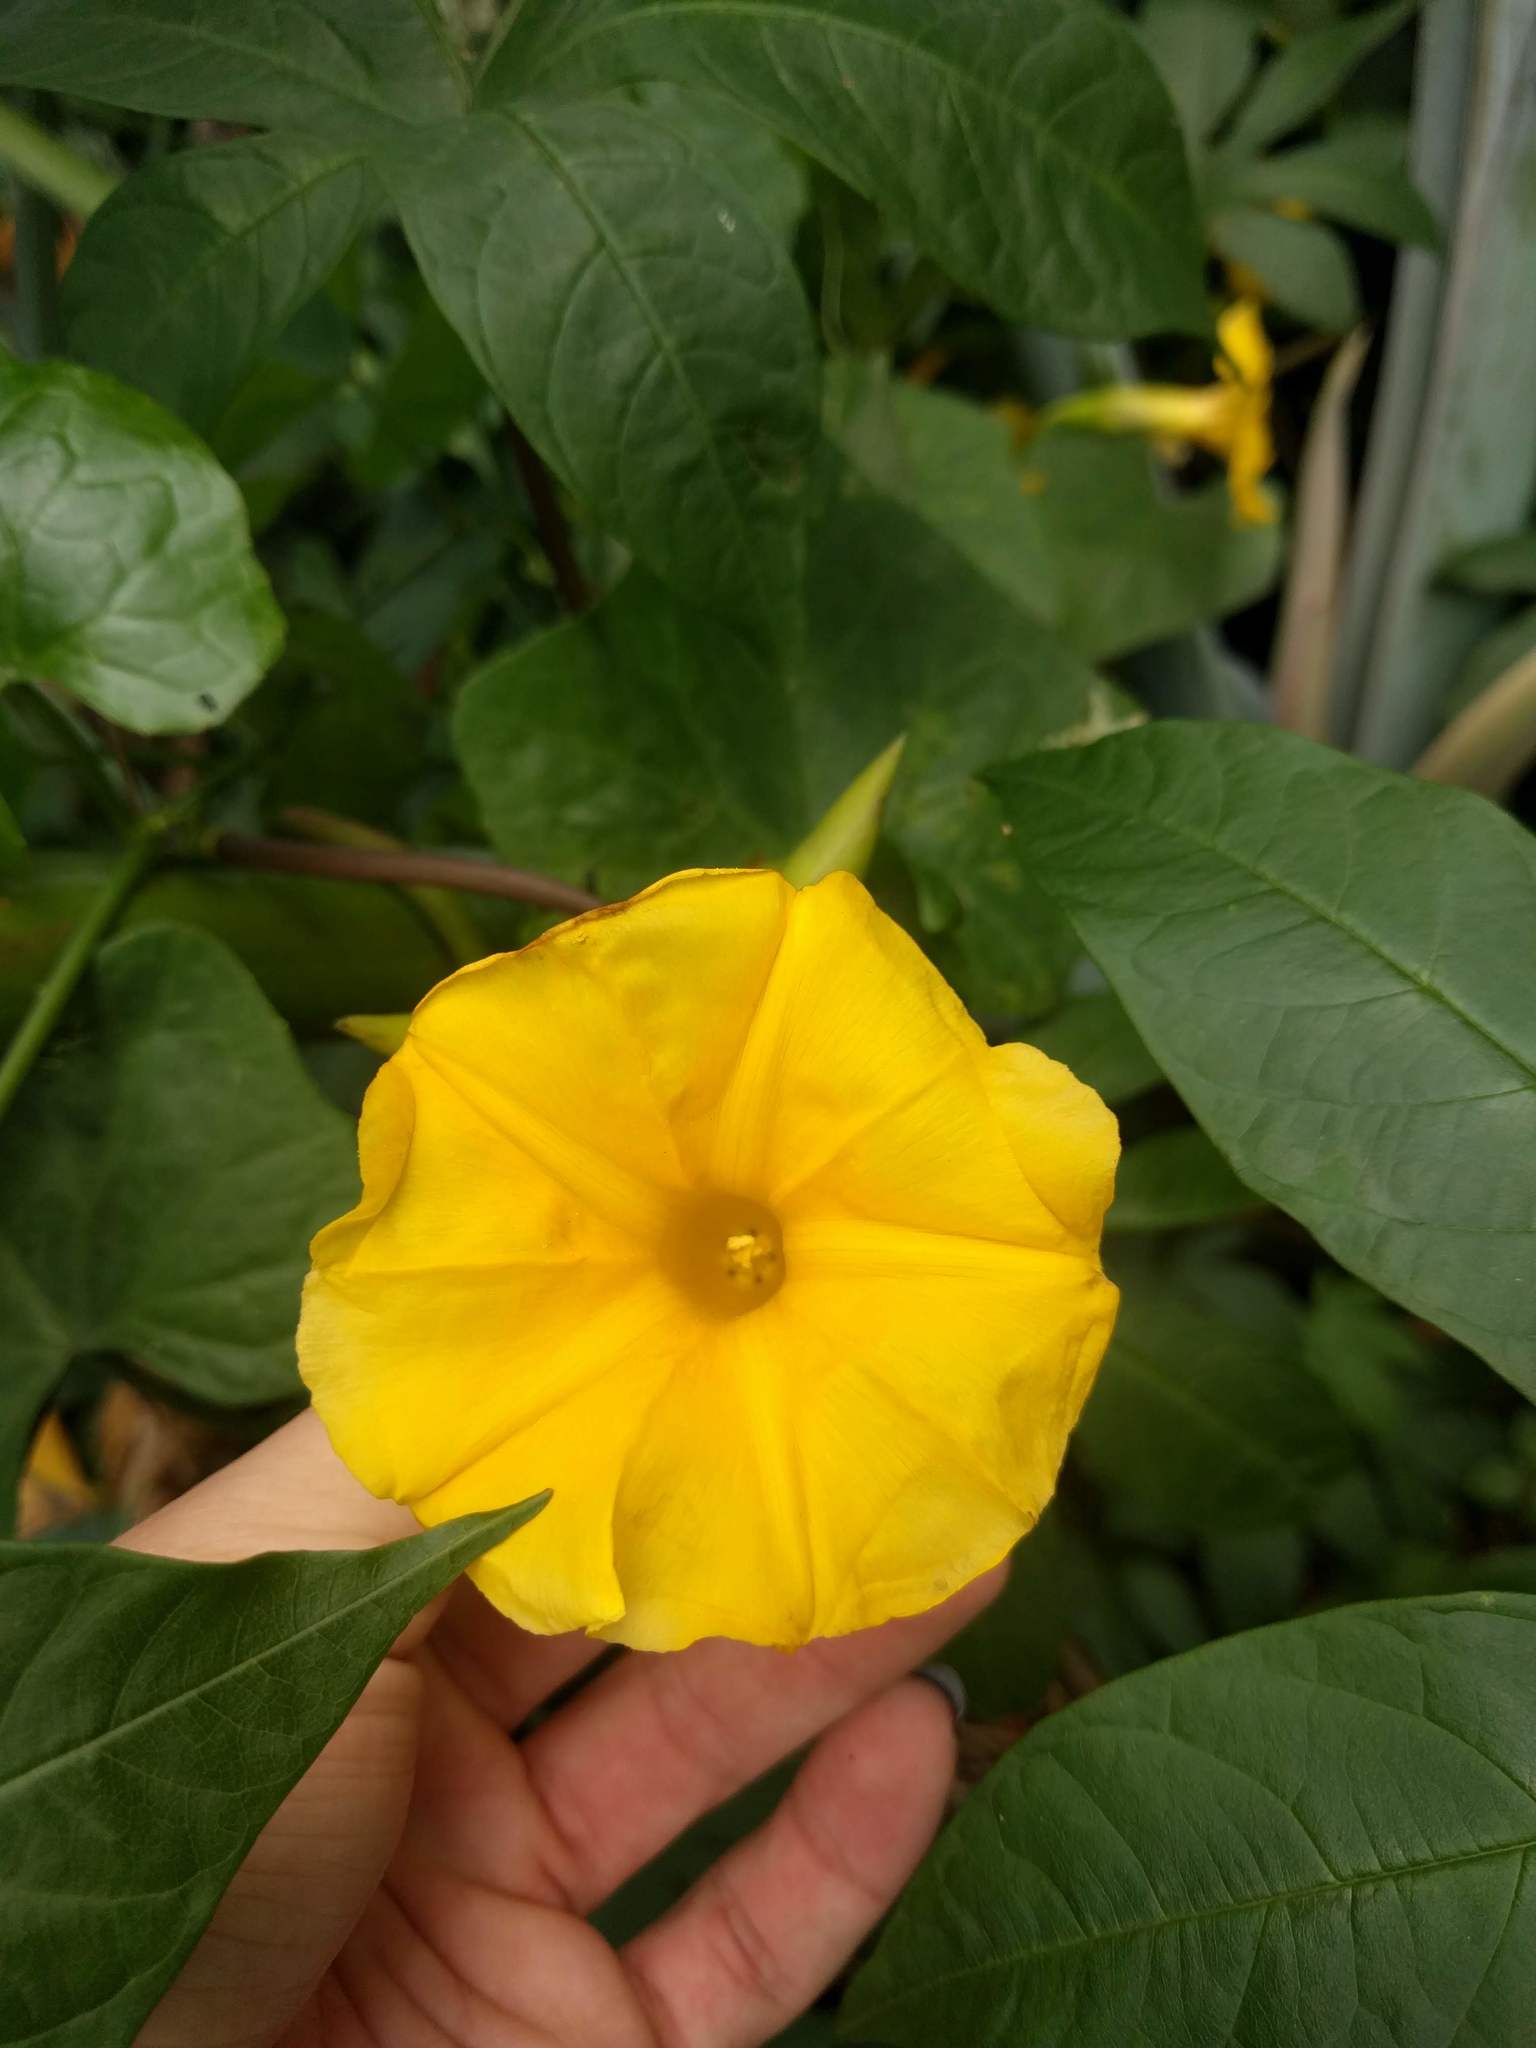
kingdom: Plantae
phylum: Tracheophyta
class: Magnoliopsida
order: Solanales
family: Convolvulaceae
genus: Distimake
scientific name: Distimake tuberosus
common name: Spanish arborvine
